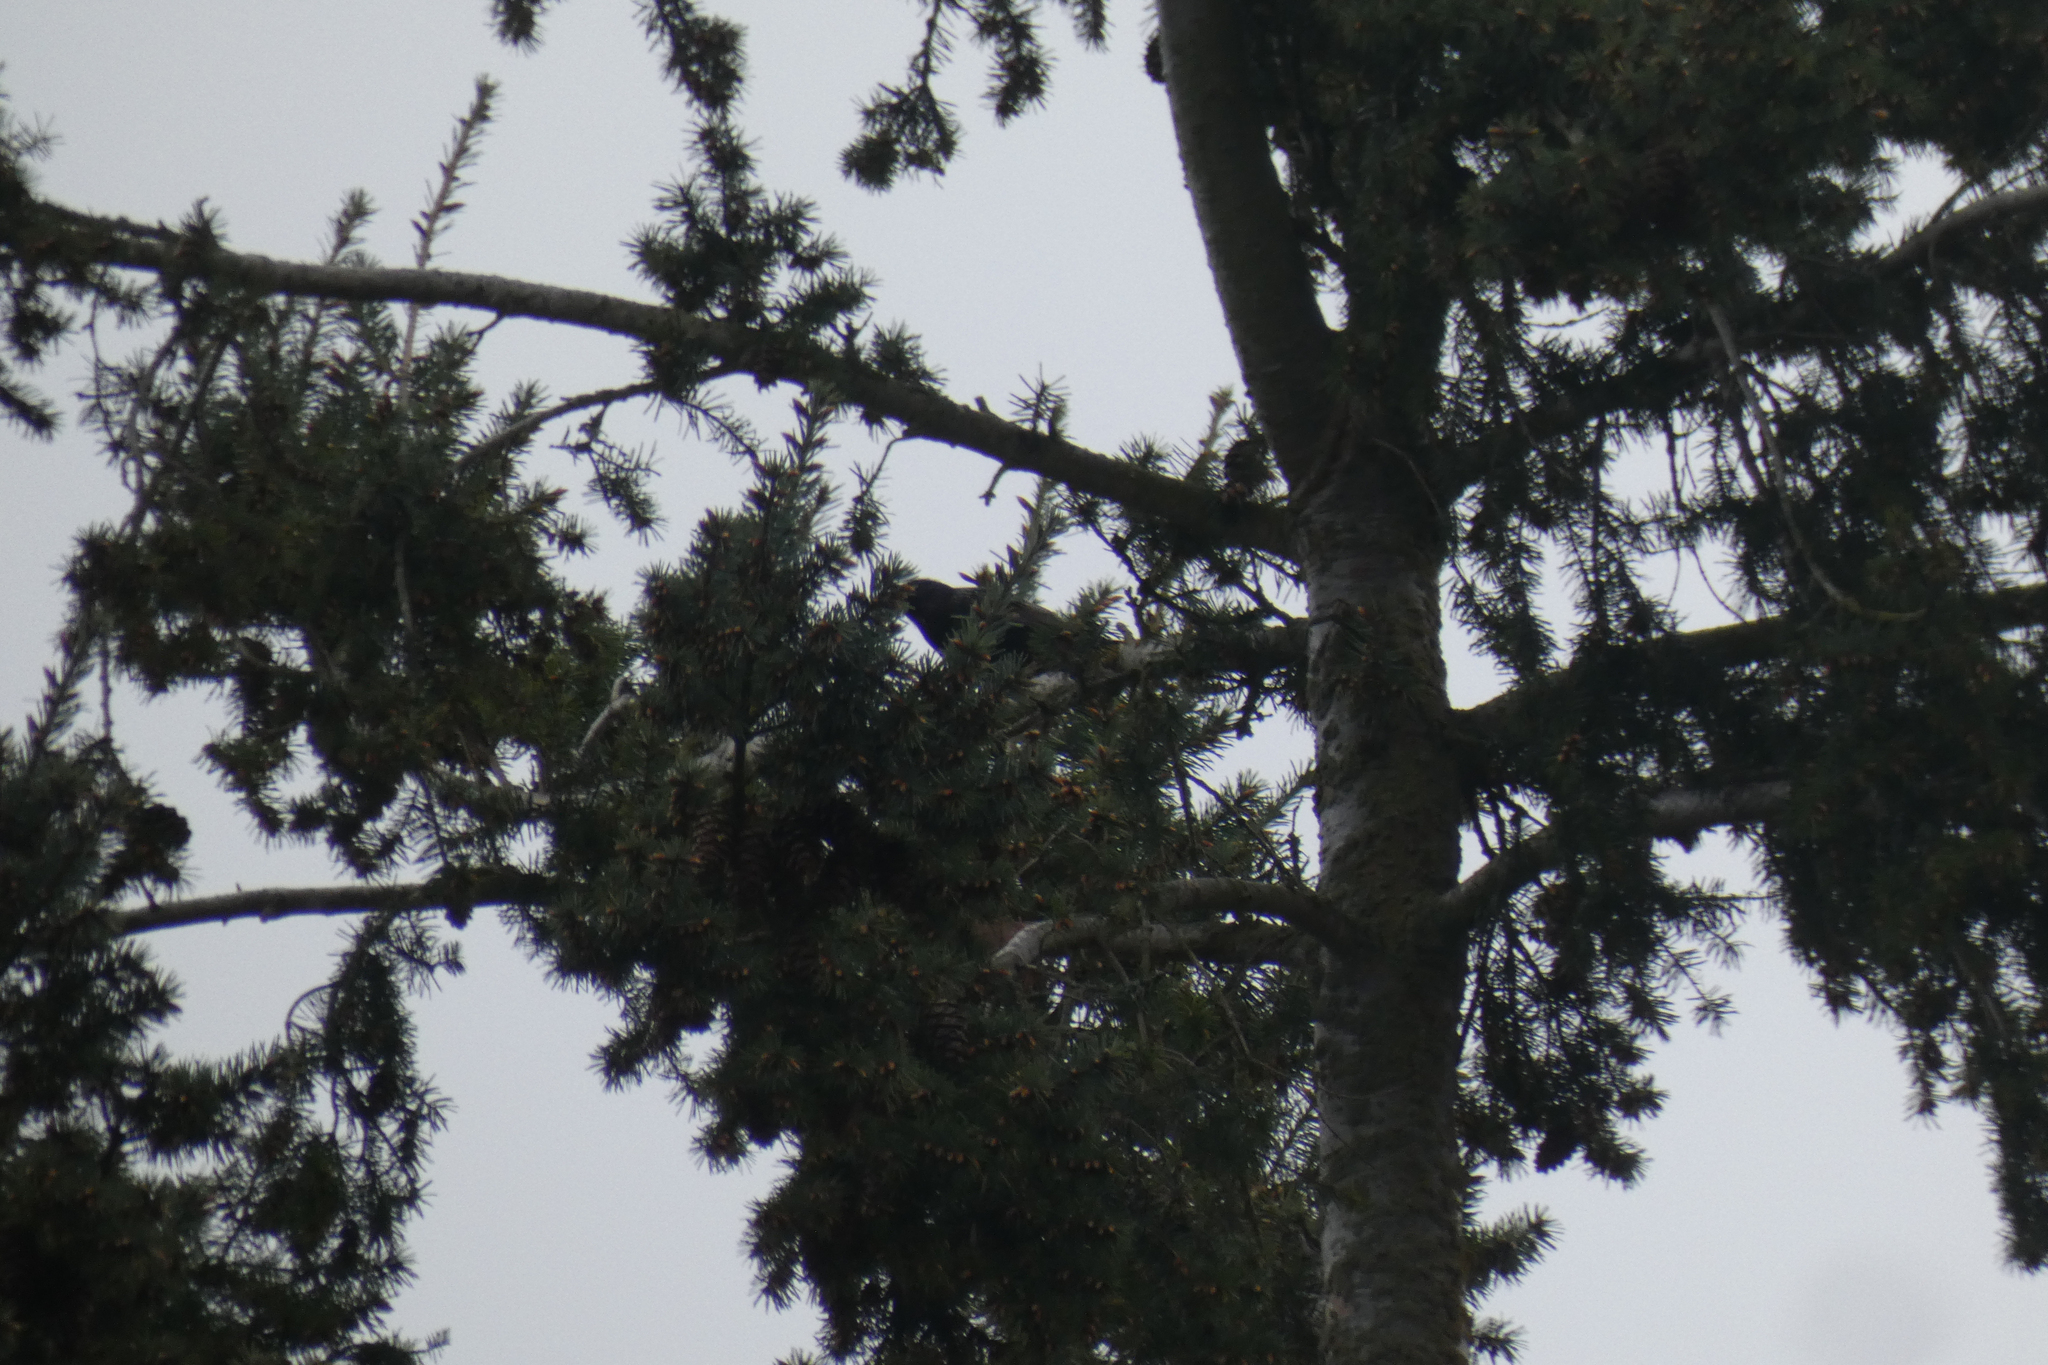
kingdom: Animalia
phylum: Chordata
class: Aves
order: Passeriformes
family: Sturnidae
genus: Sturnus
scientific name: Sturnus vulgaris
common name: Common starling
